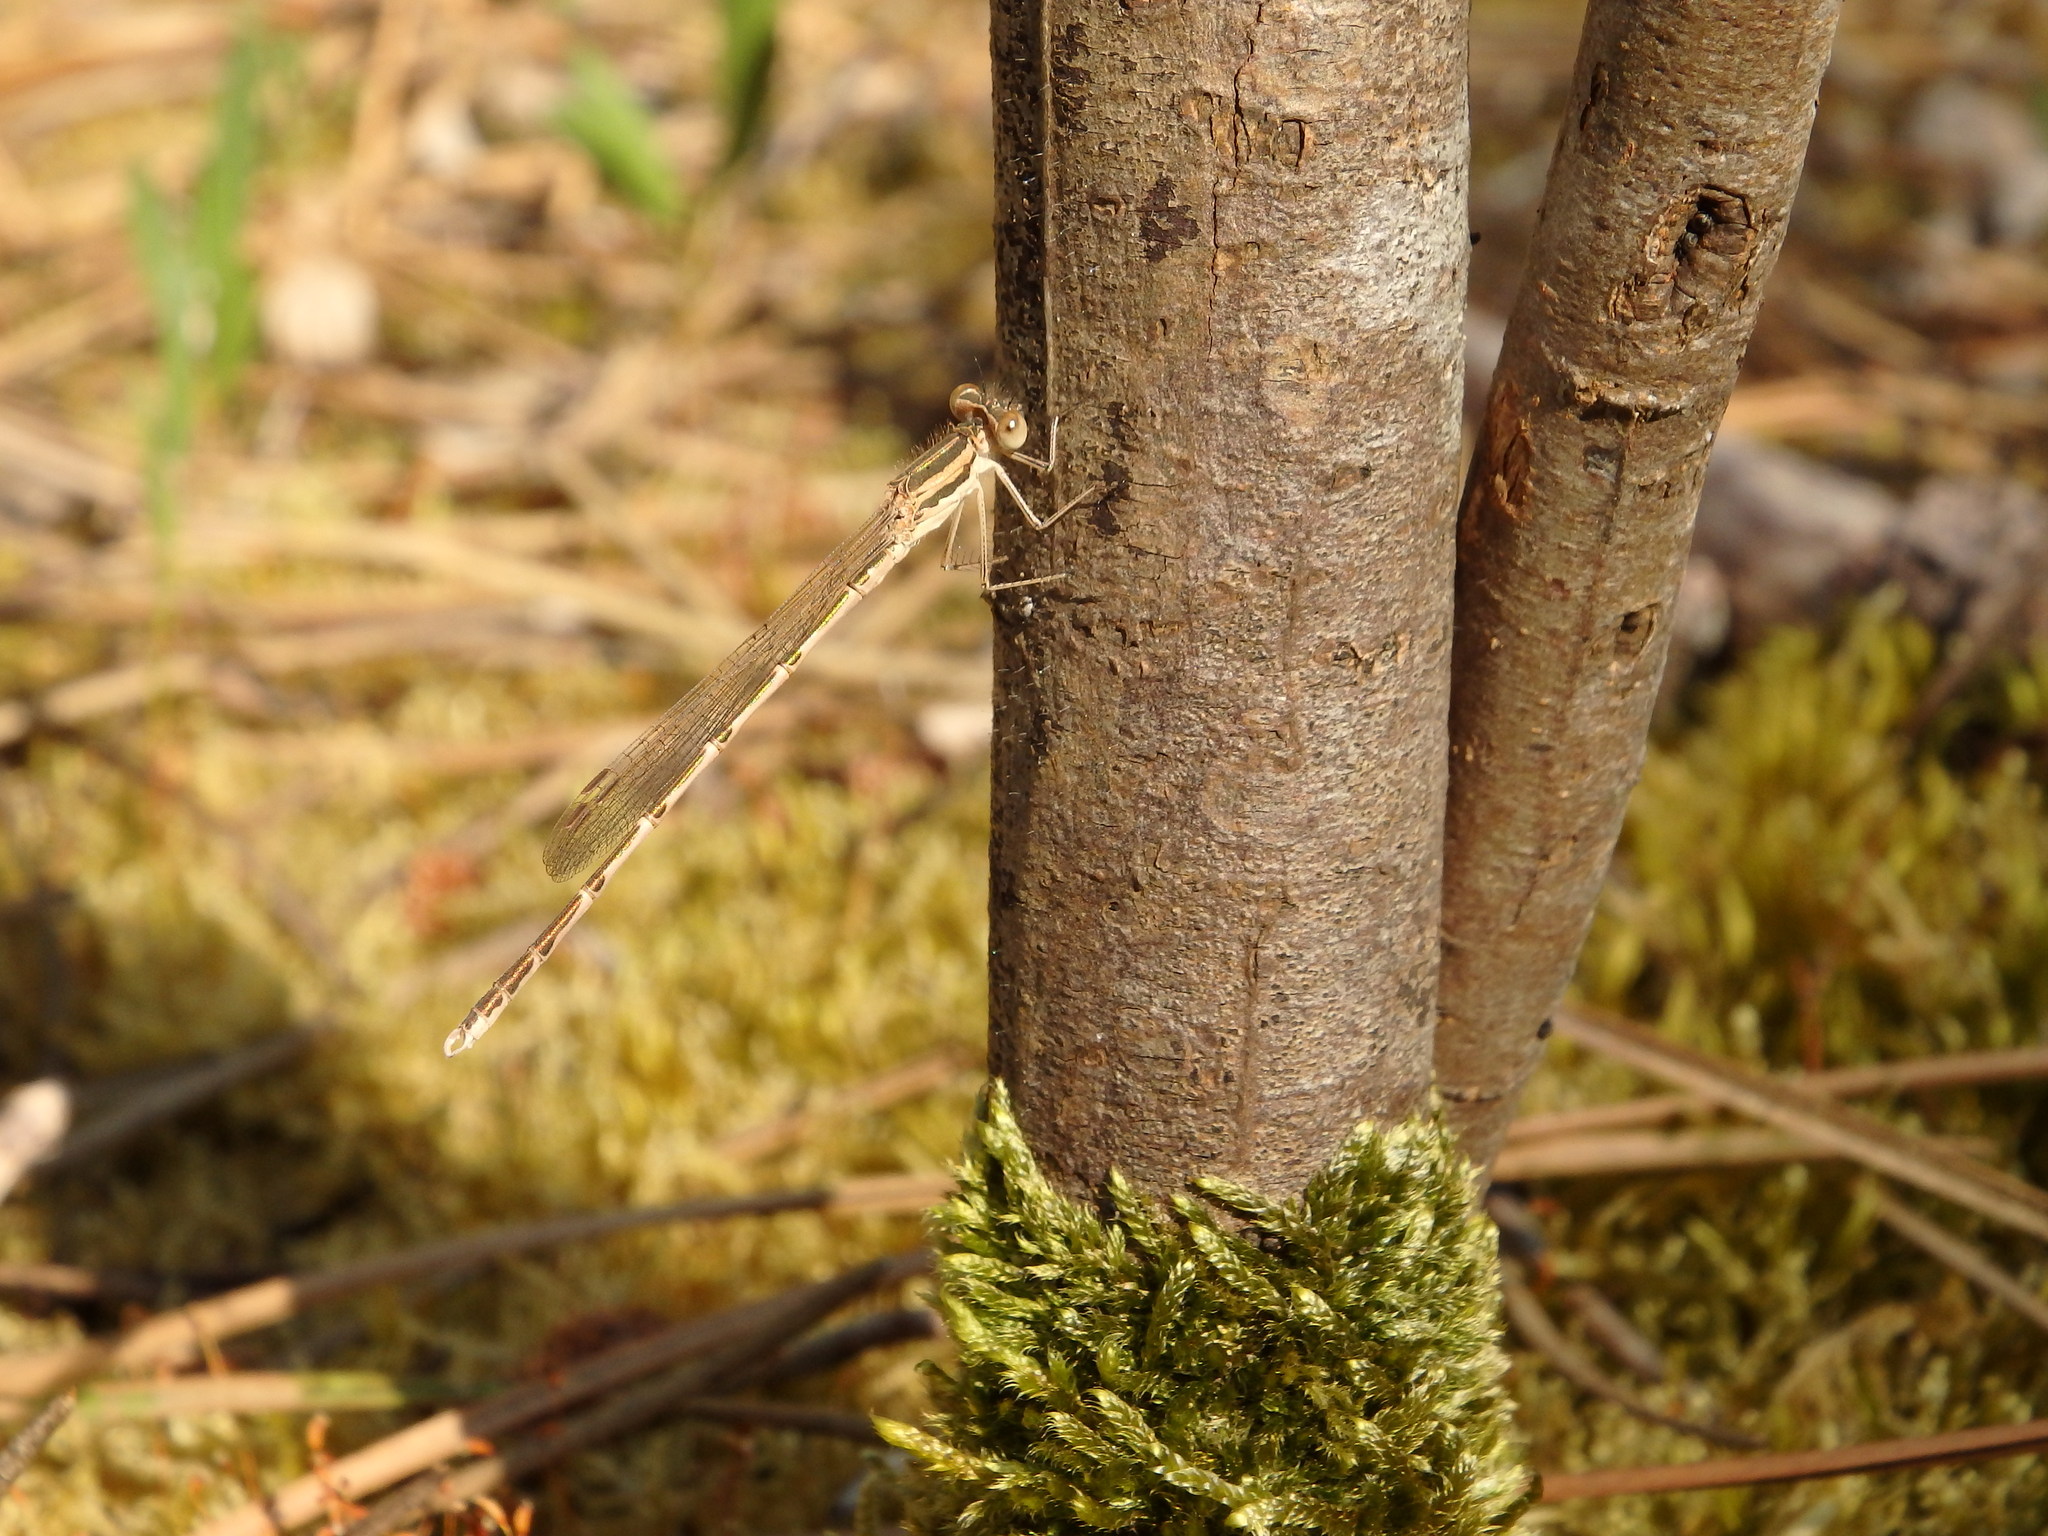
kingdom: Animalia
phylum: Arthropoda
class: Insecta
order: Odonata
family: Lestidae
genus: Sympecma
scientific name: Sympecma fusca
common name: Common winter damsel
